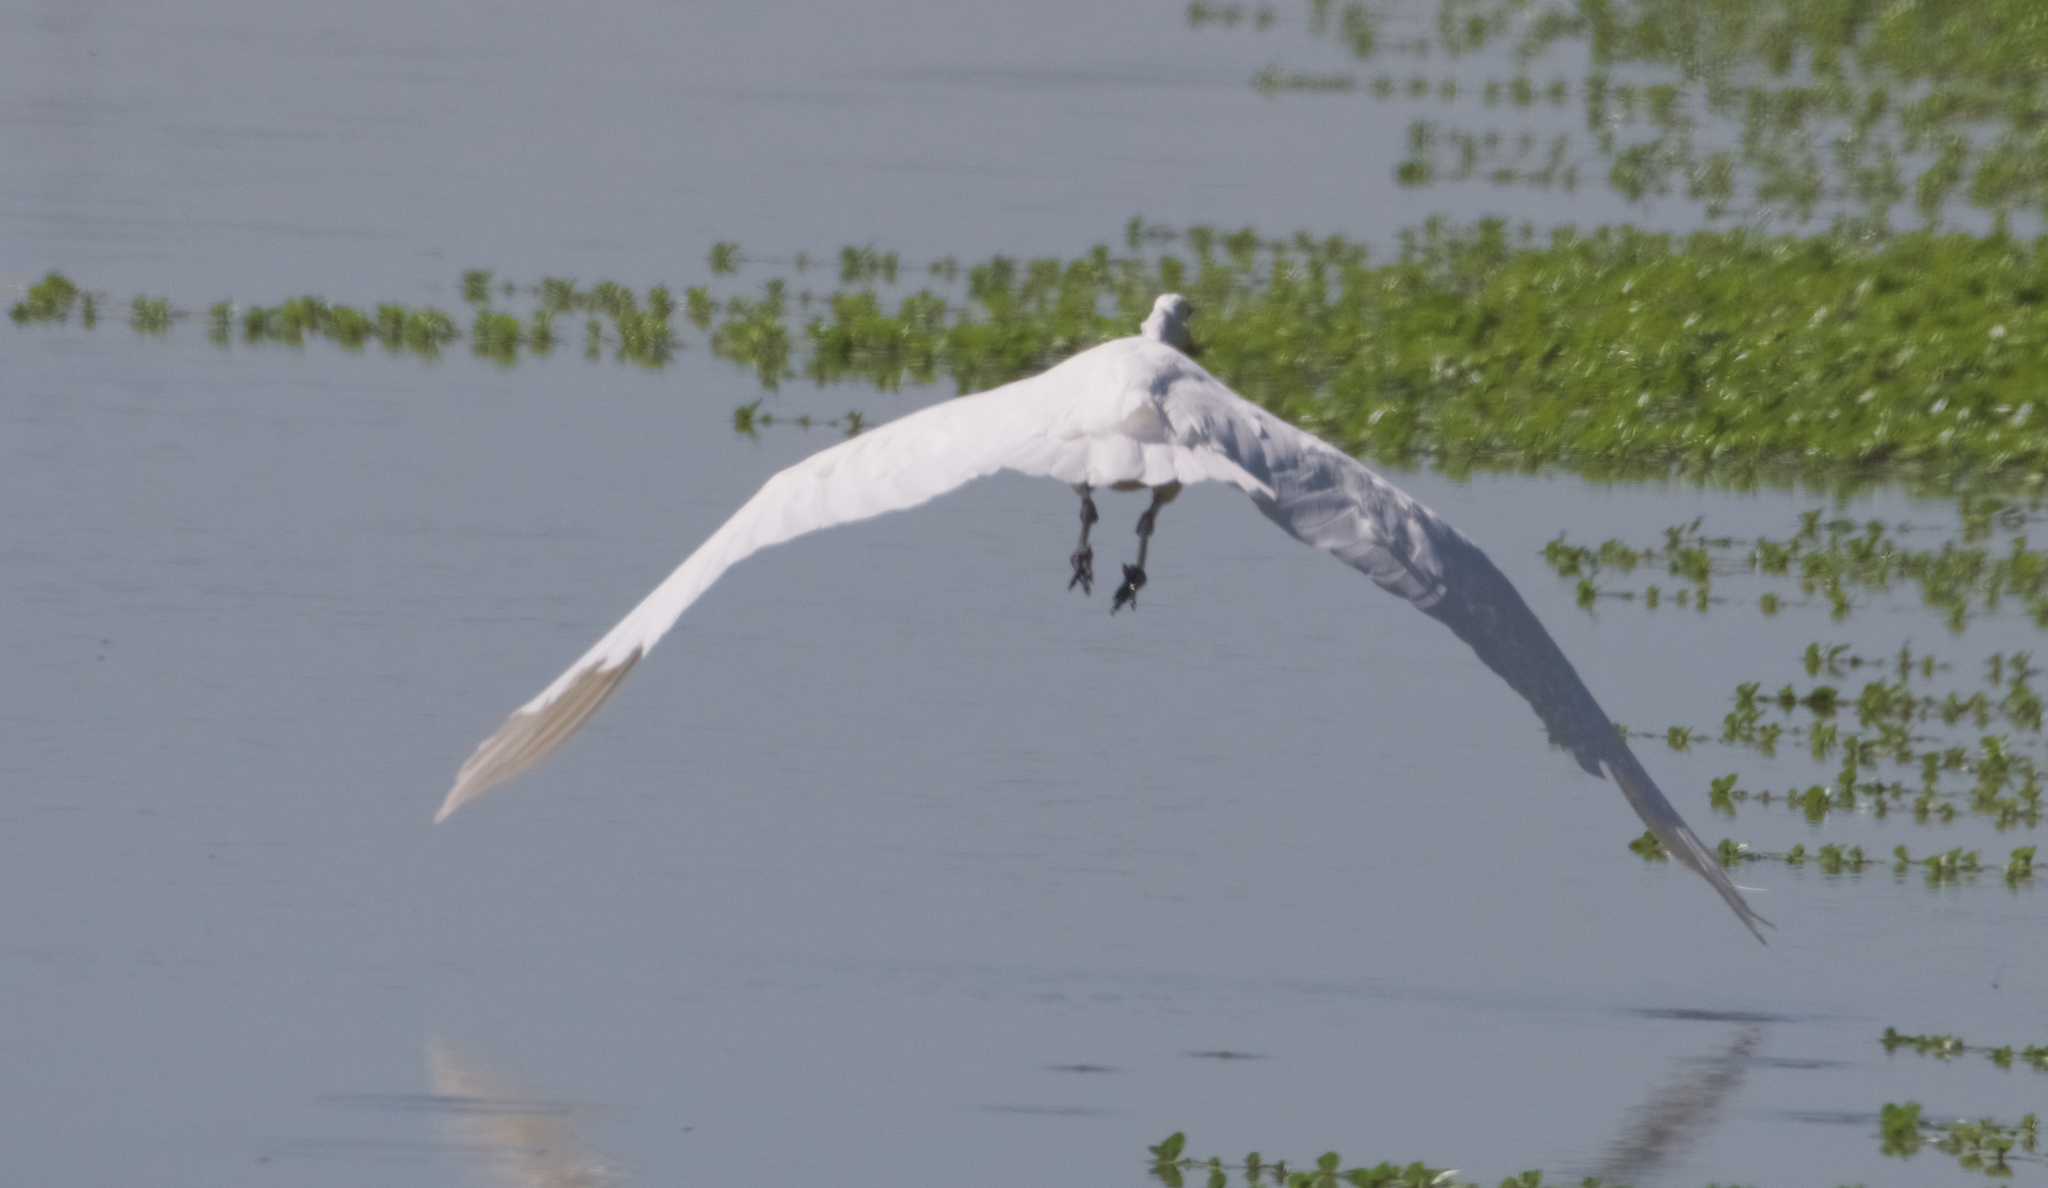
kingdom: Animalia
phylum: Chordata
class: Aves
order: Pelecaniformes
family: Ardeidae
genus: Ardea
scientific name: Ardea alba
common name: Great egret
